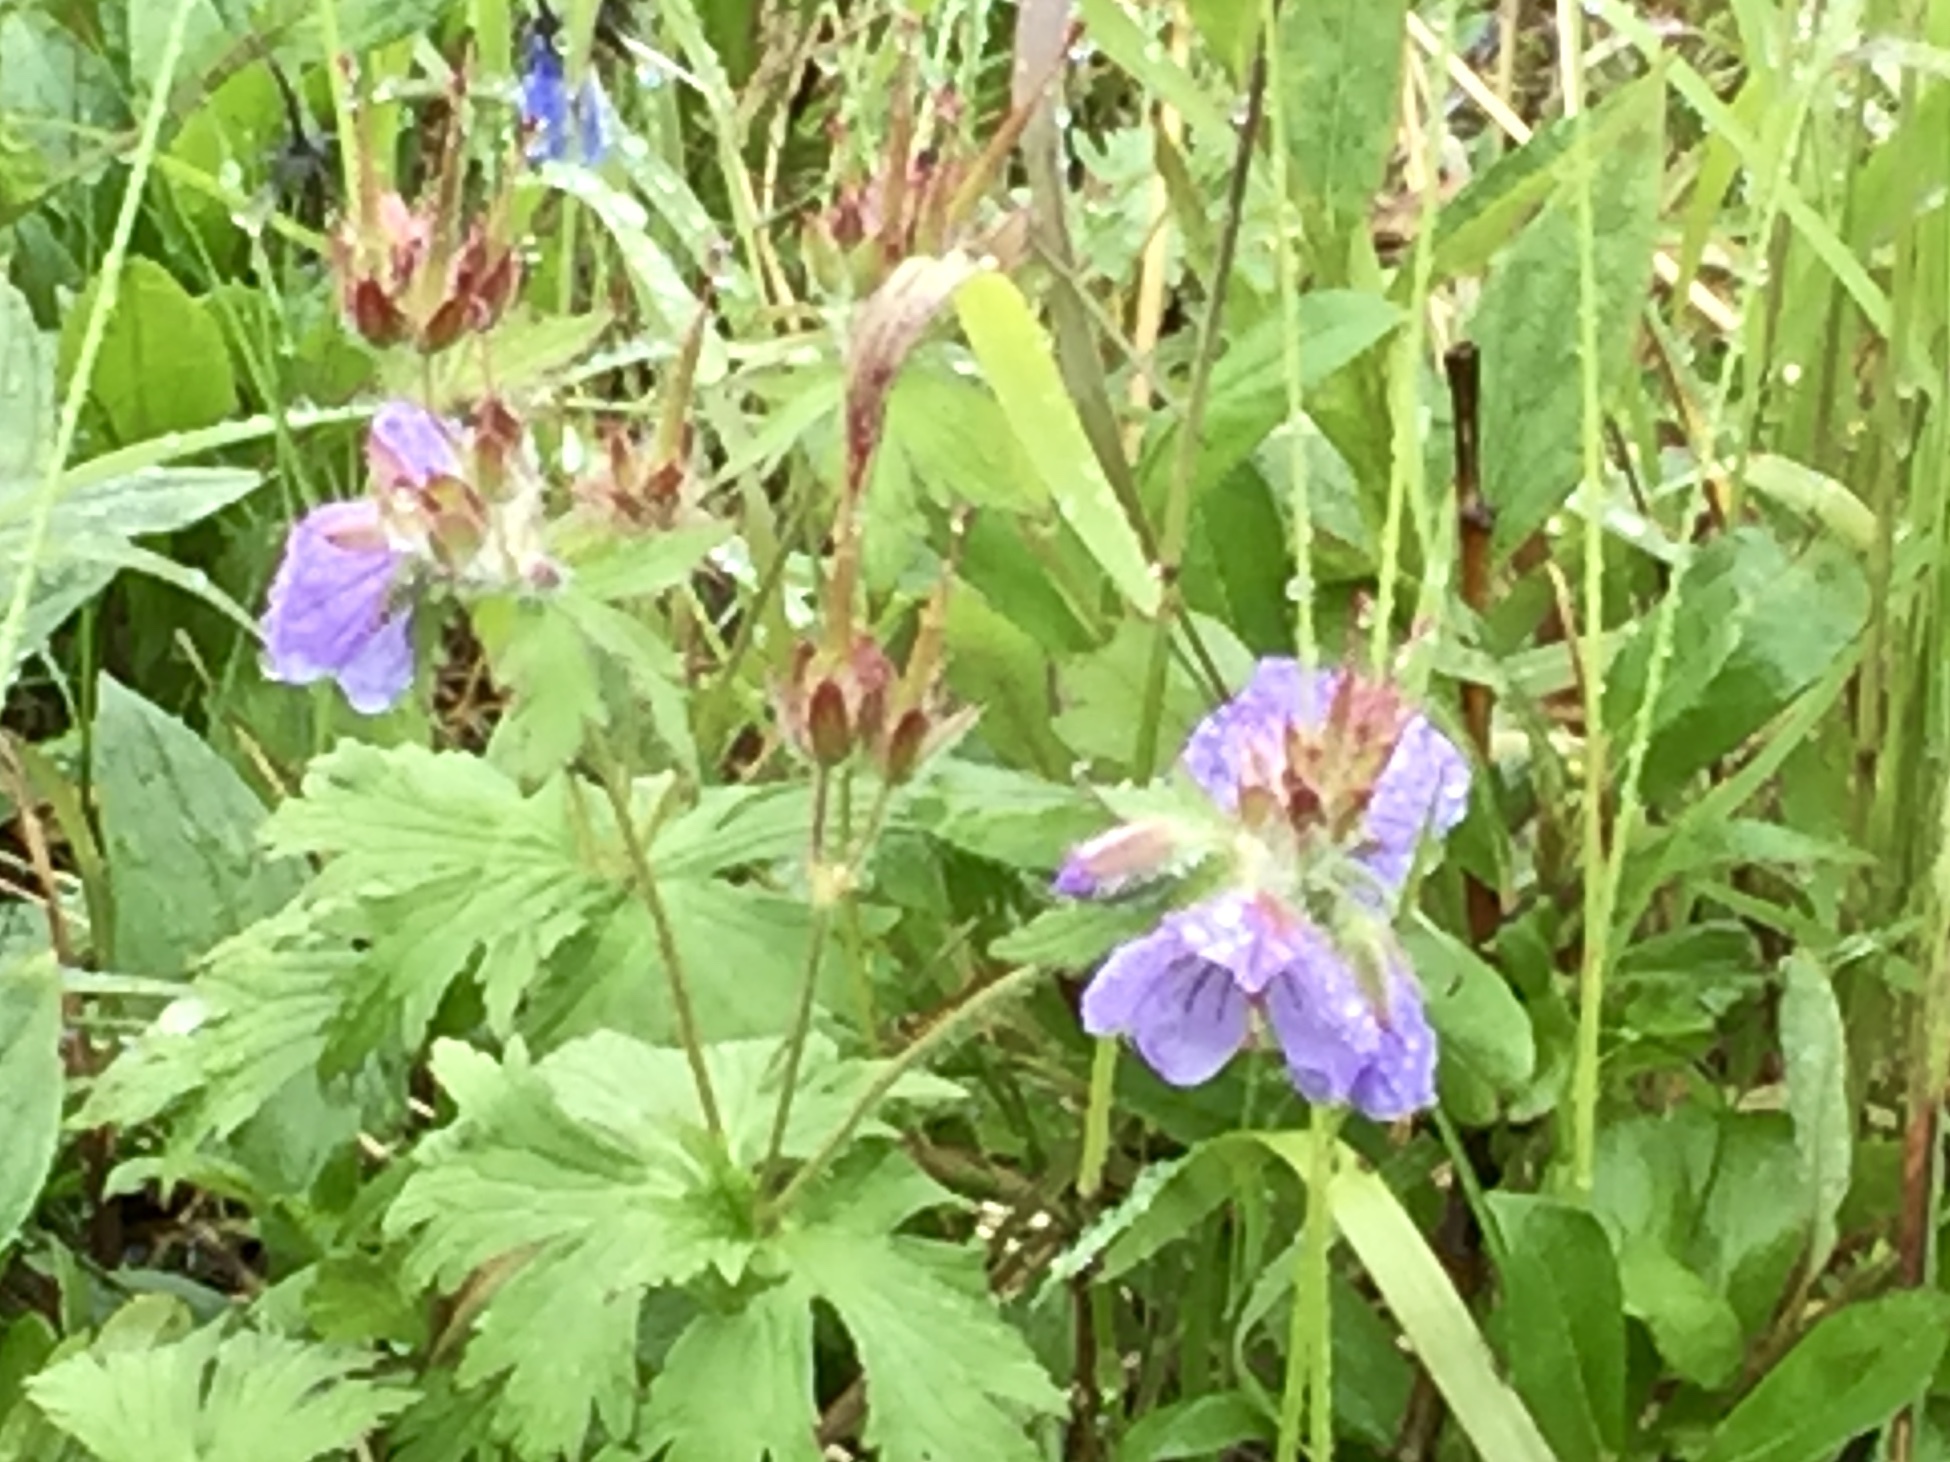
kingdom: Plantae
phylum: Tracheophyta
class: Magnoliopsida
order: Geraniales
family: Geraniaceae
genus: Geranium
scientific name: Geranium erianthum
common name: Northern crane's-bill
